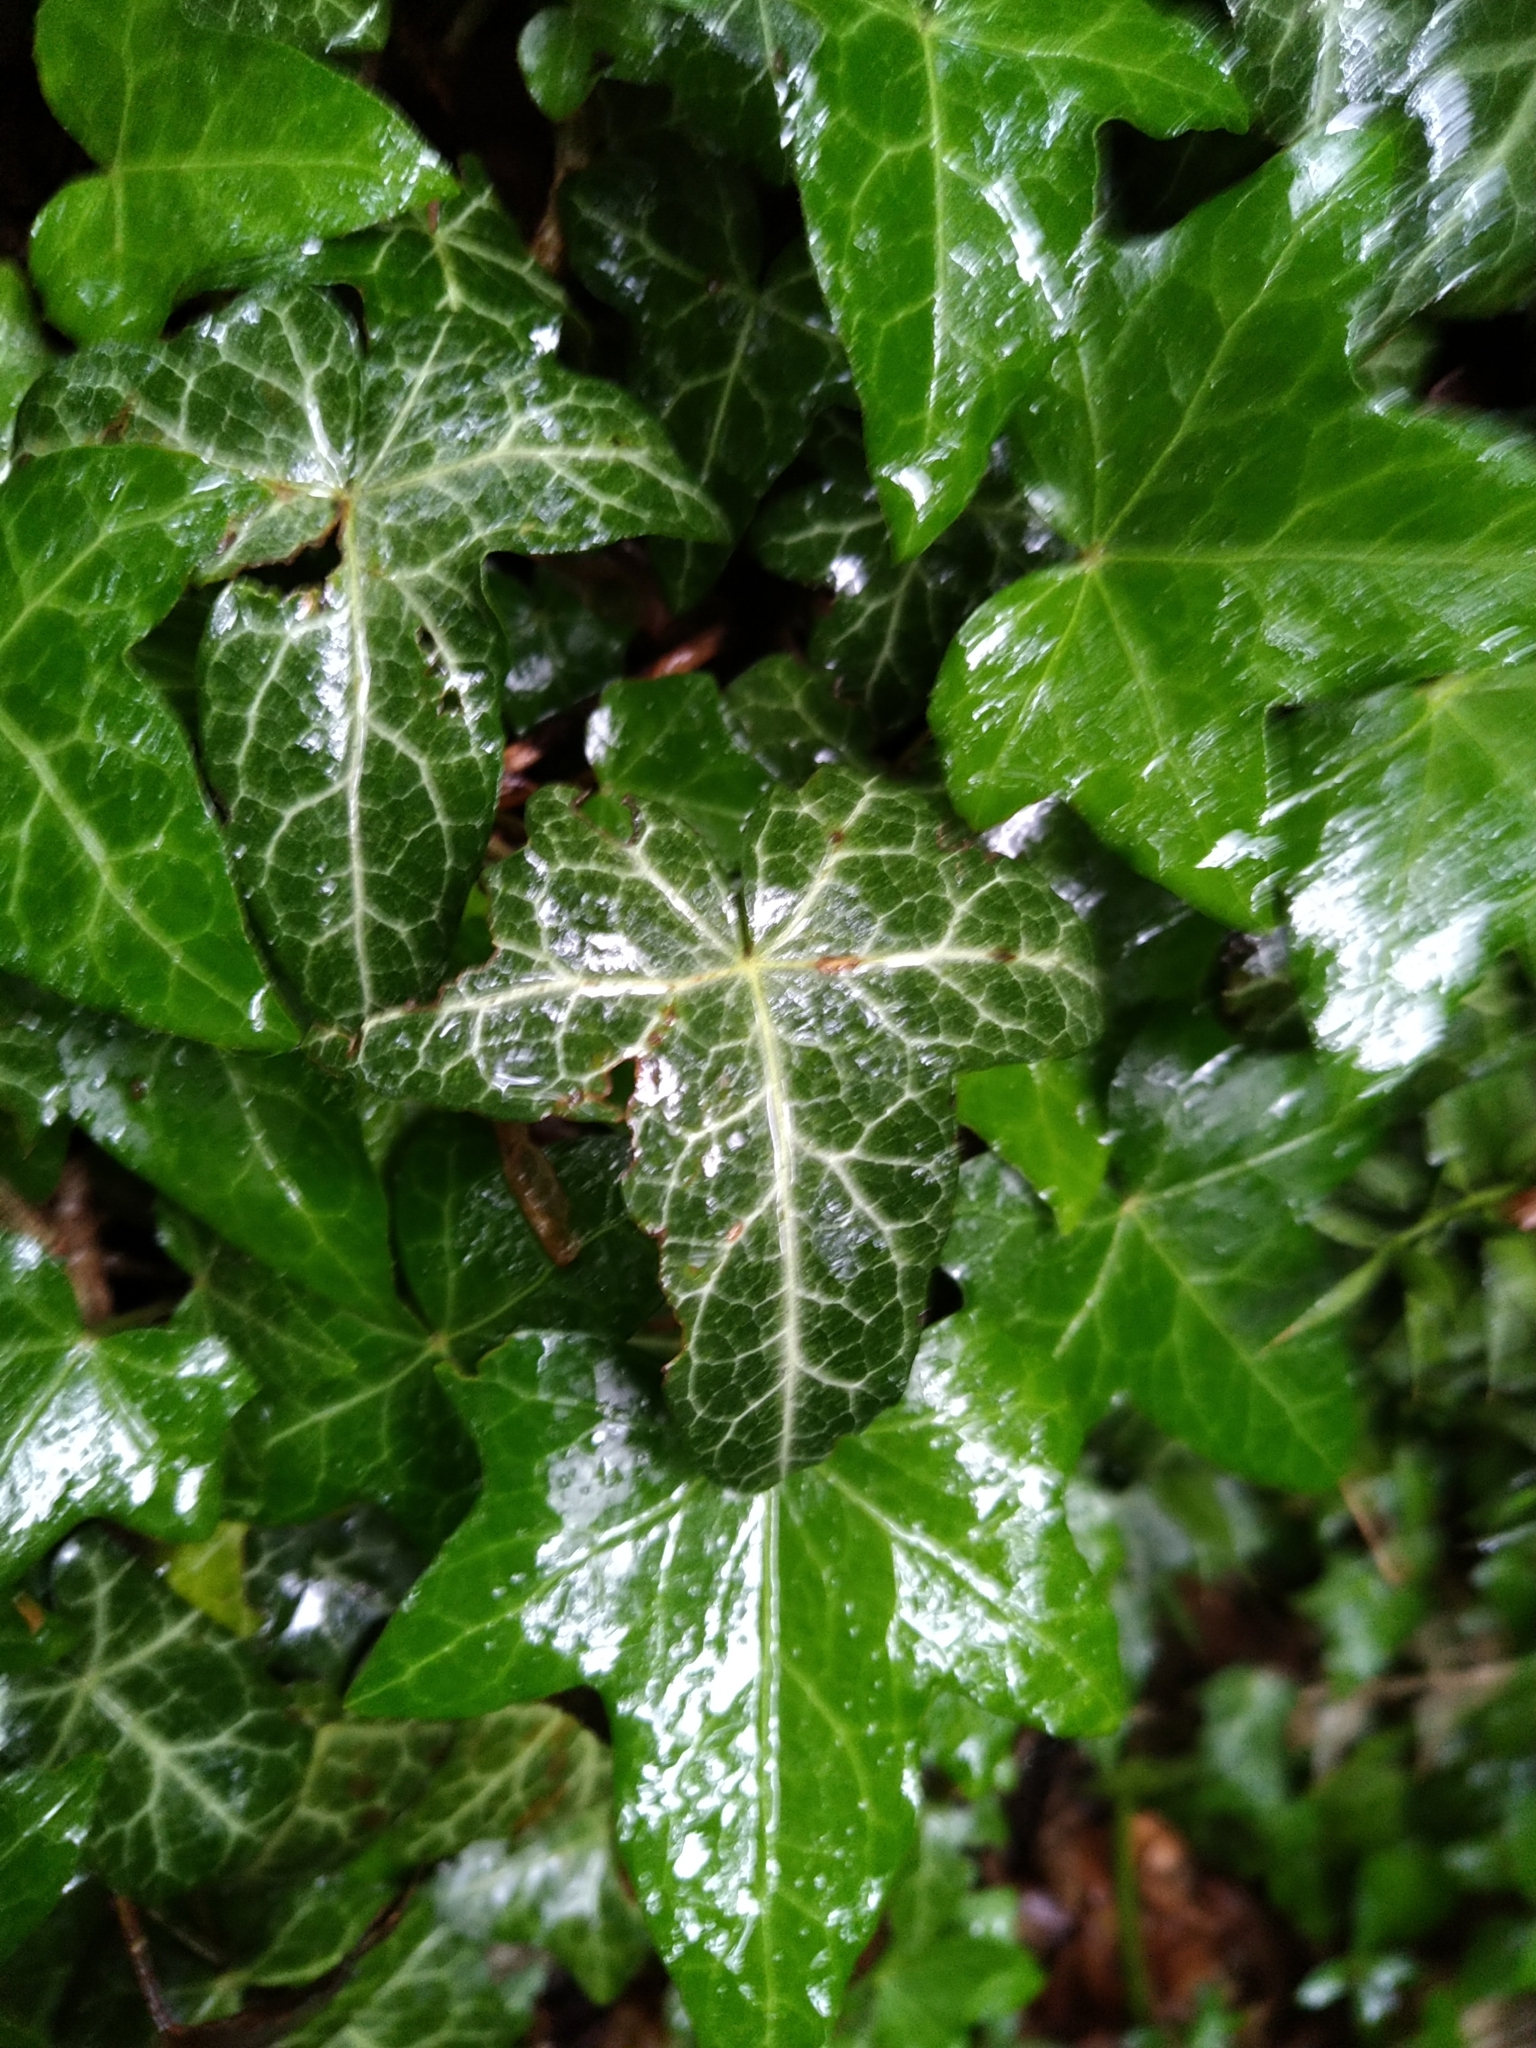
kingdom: Plantae
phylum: Tracheophyta
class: Magnoliopsida
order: Apiales
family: Araliaceae
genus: Hedera
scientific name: Hedera helix
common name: Ivy
